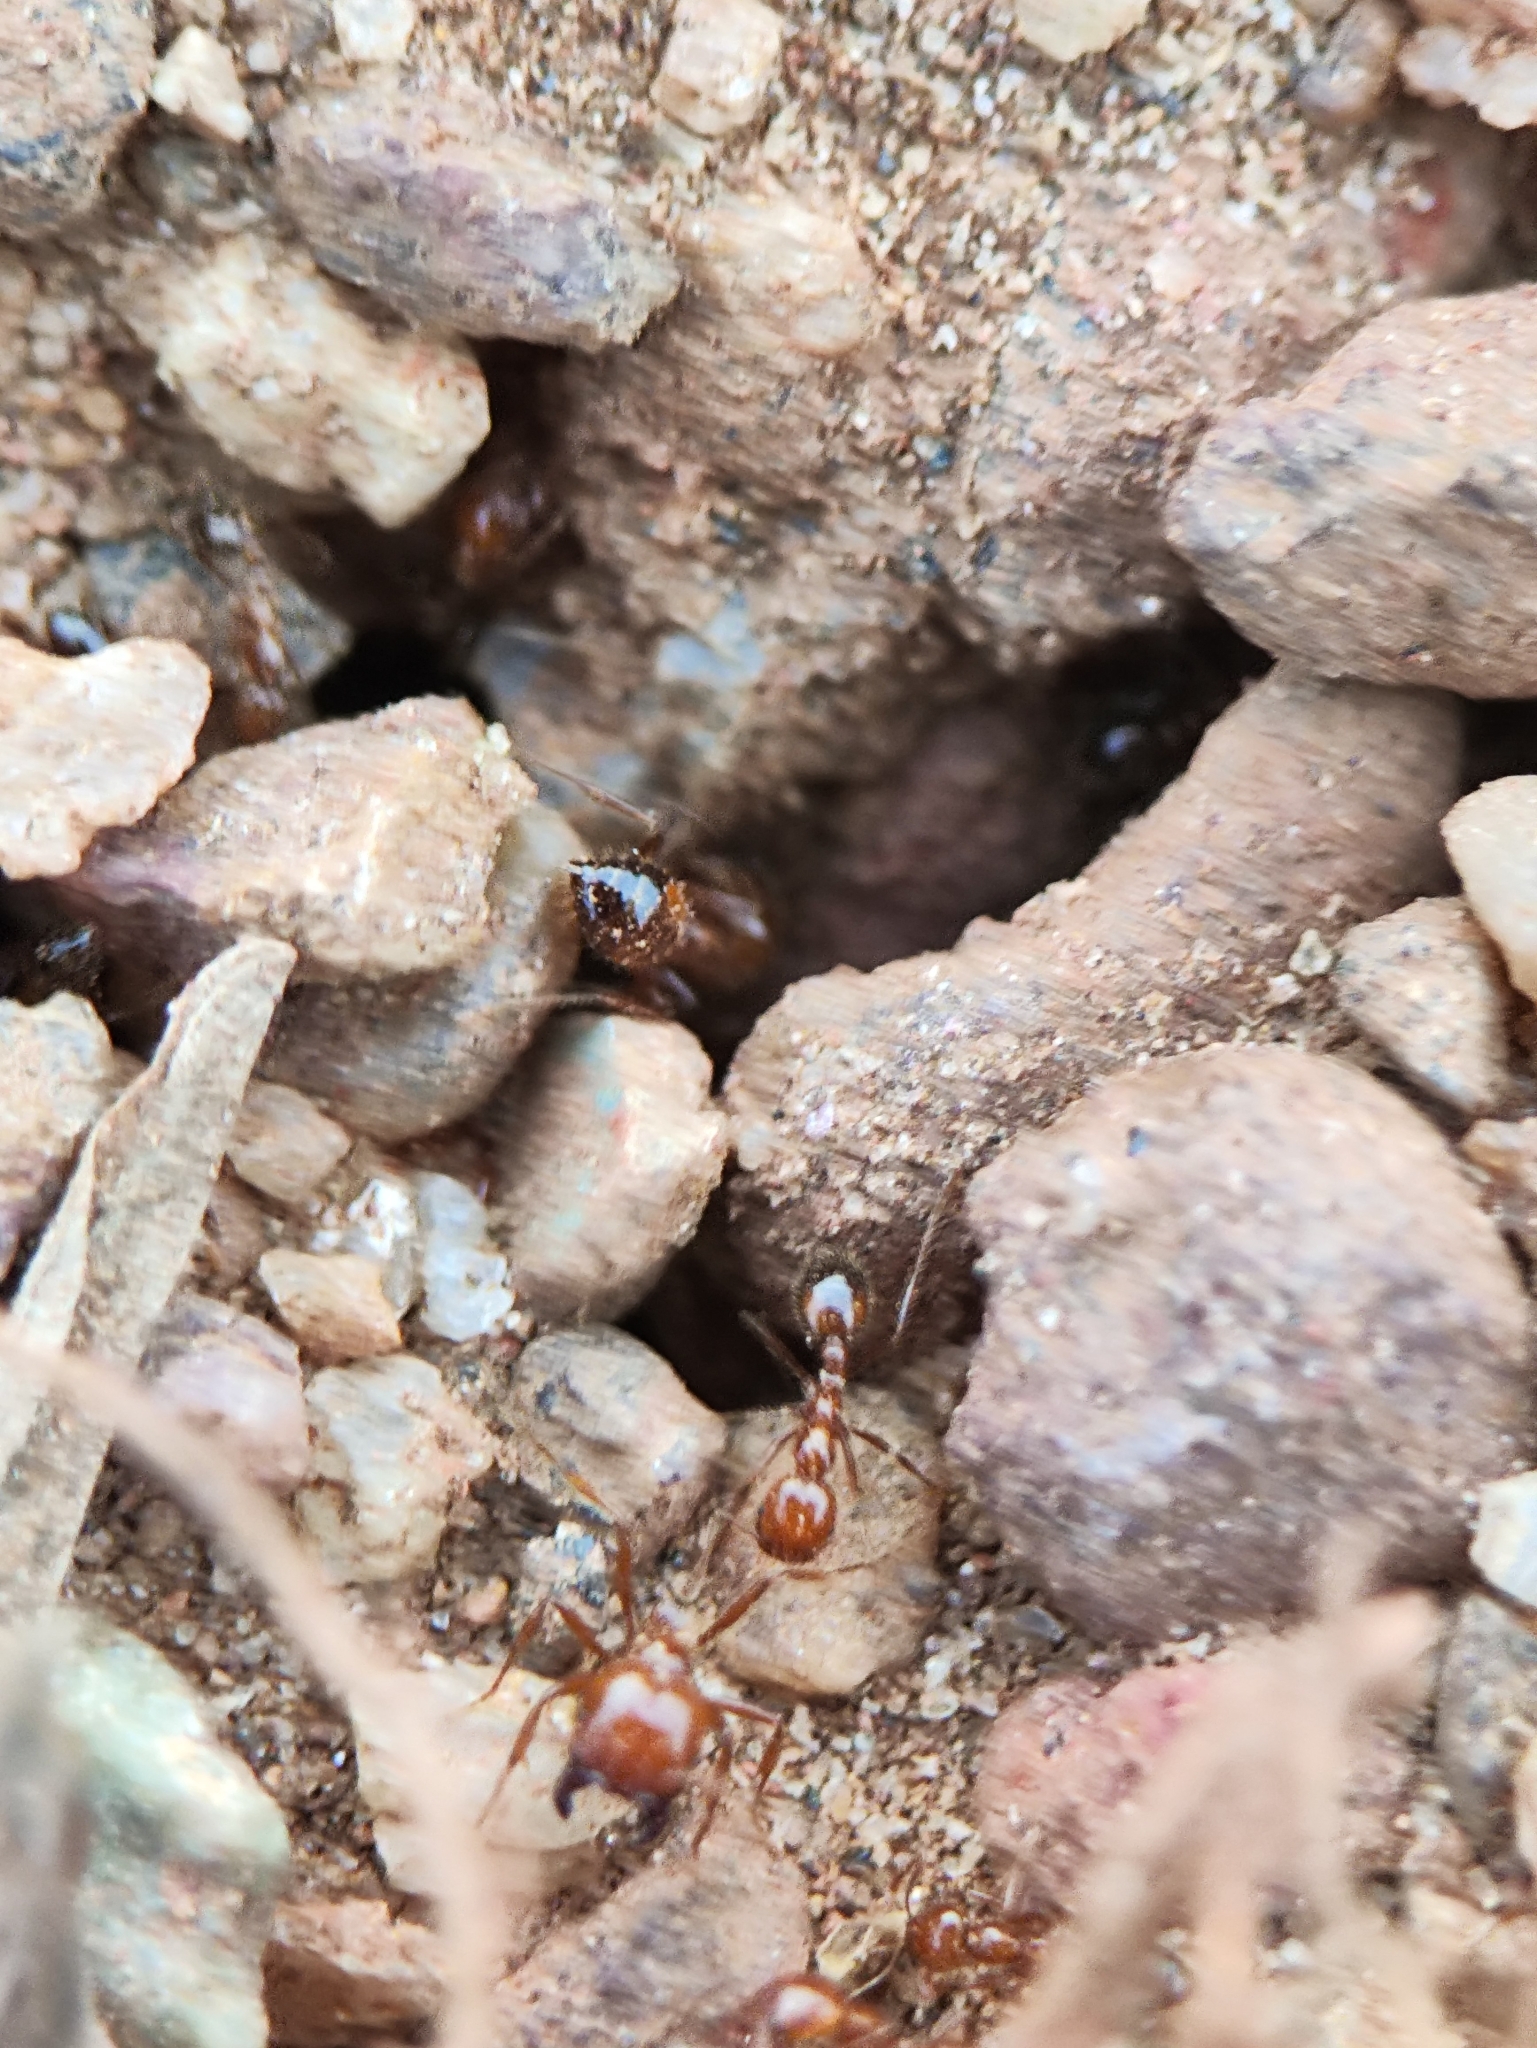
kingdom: Animalia
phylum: Arthropoda
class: Insecta
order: Hymenoptera
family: Formicidae
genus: Solenopsis
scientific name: Solenopsis geminata
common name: Tropical fire ant
